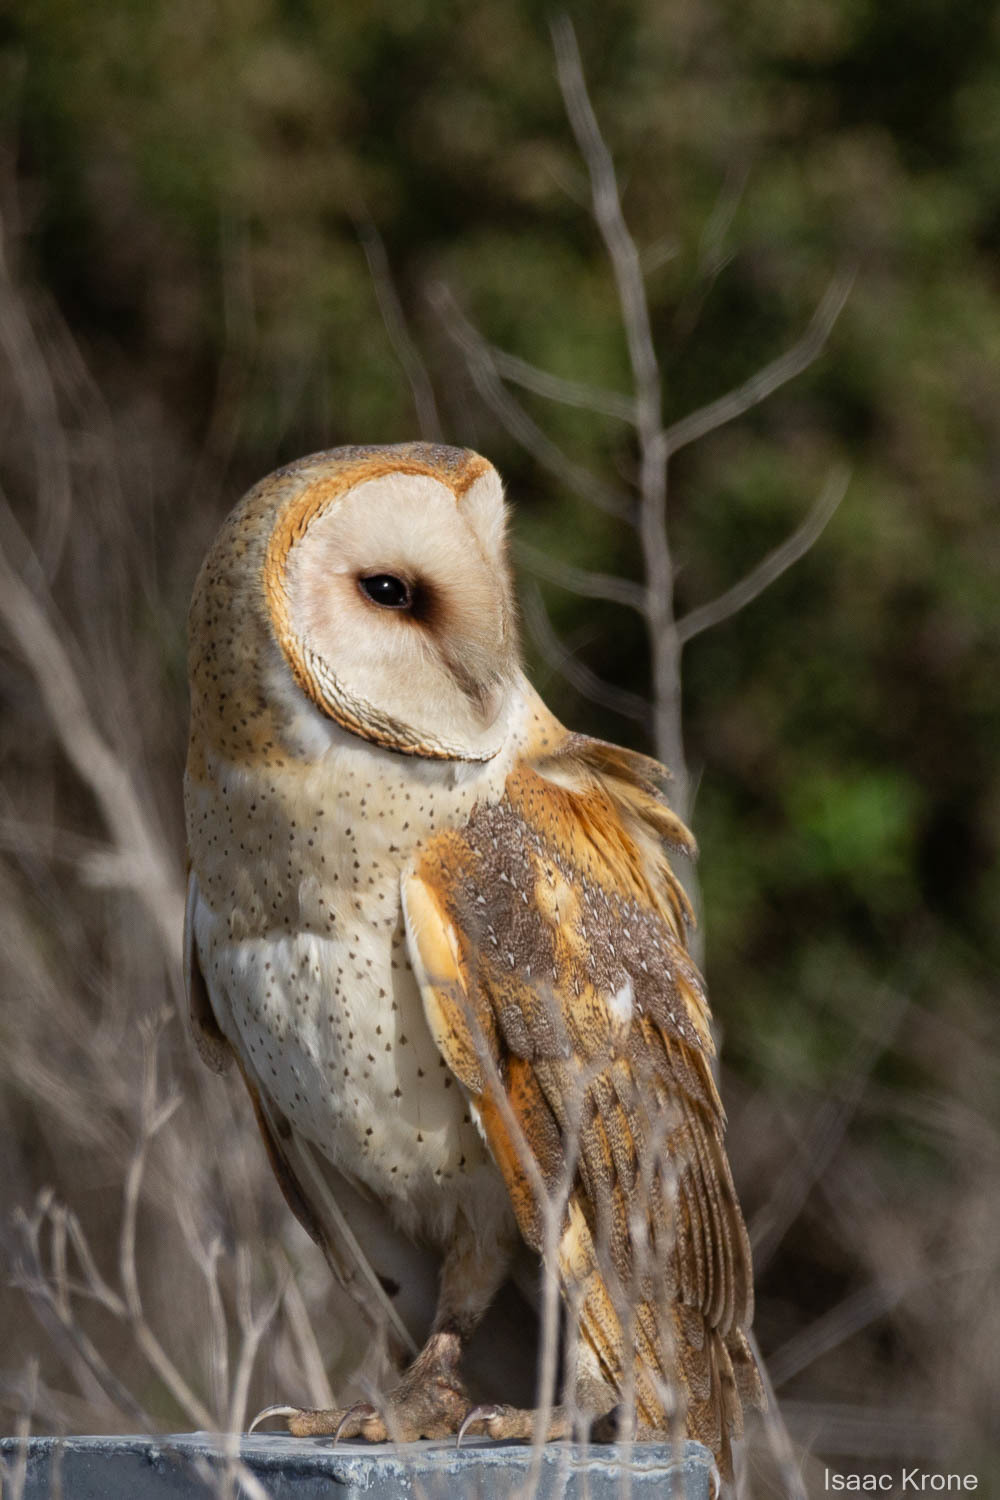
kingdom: Animalia
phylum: Chordata
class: Aves
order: Strigiformes
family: Tytonidae
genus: Tyto
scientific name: Tyto alba
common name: Barn owl
